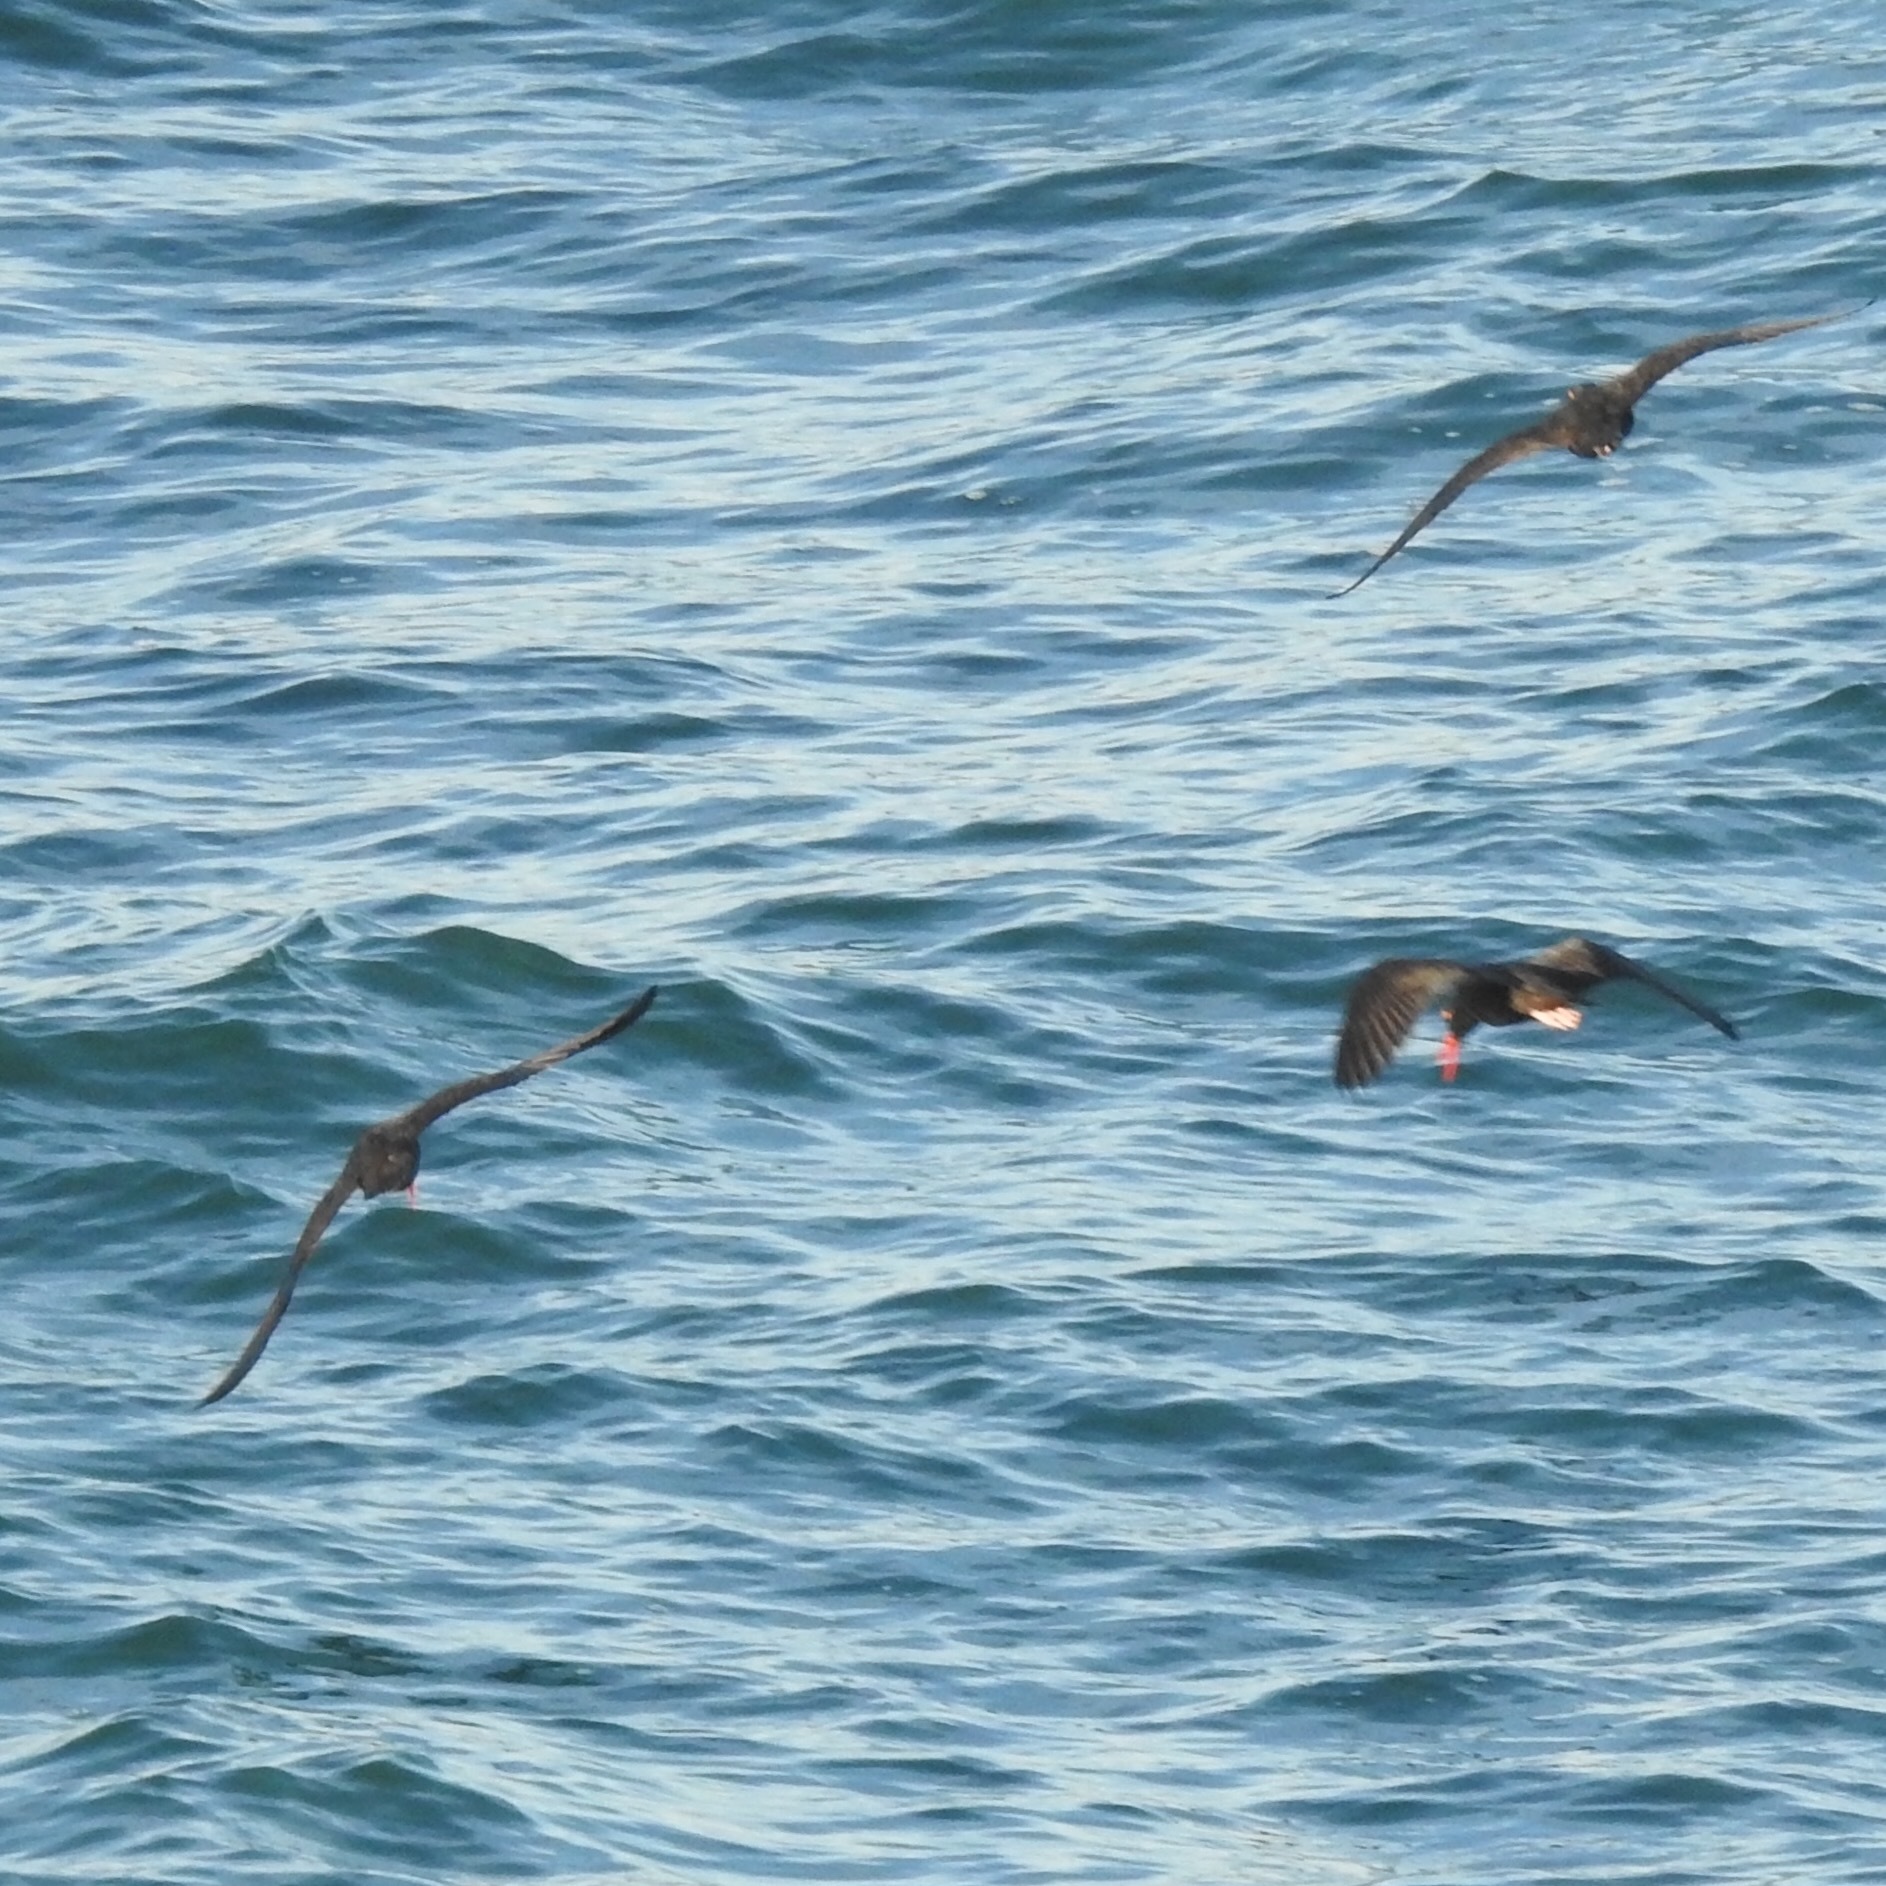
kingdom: Animalia
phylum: Chordata
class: Aves
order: Charadriiformes
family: Haematopodidae
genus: Haematopus
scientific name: Haematopus bachmani
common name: Black oystercatcher
